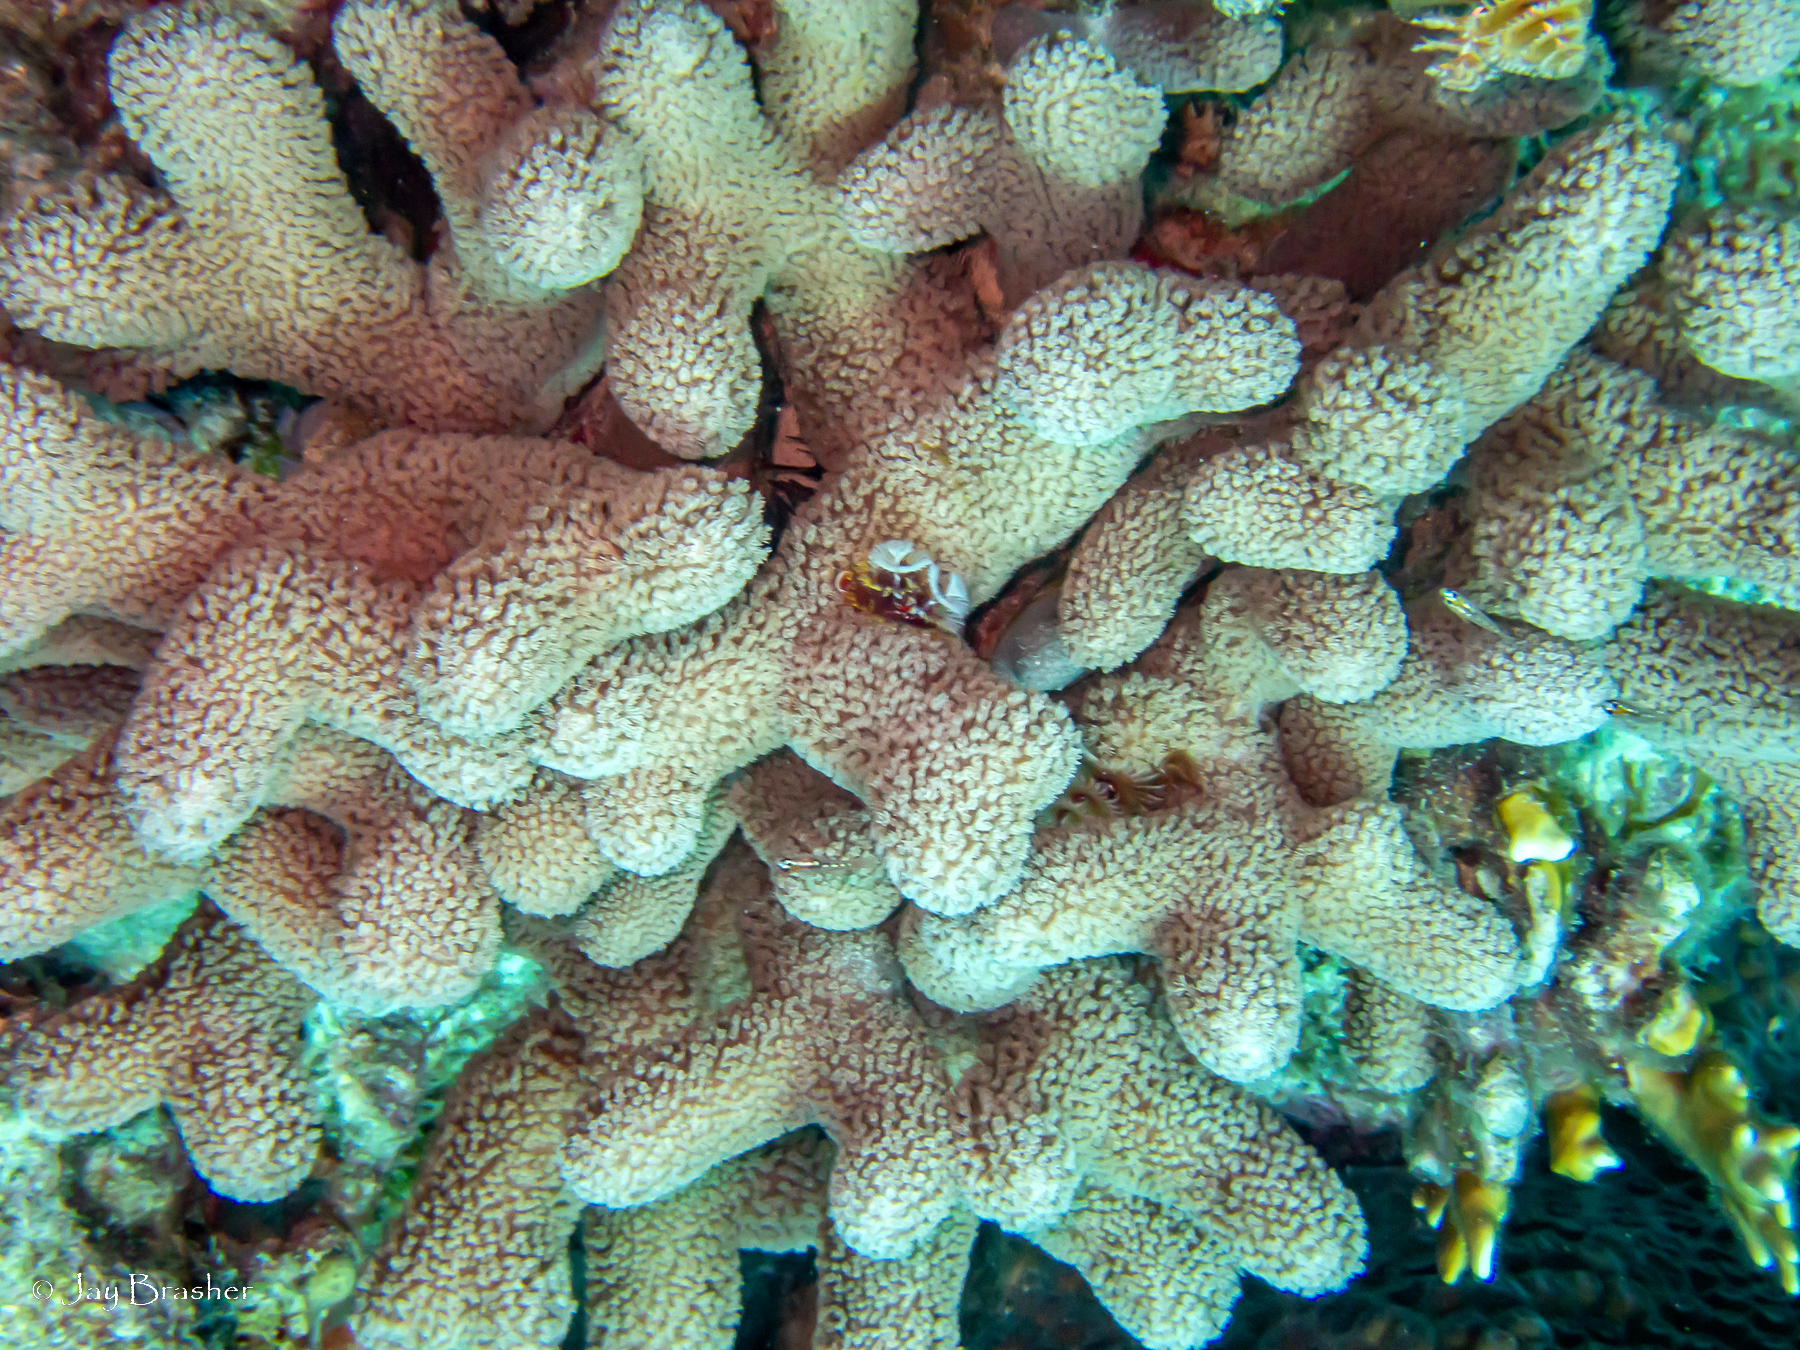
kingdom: Animalia
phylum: Cnidaria
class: Anthozoa
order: Scleractinia
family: Poritidae
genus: Porites
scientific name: Porites porites
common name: Finger coral
